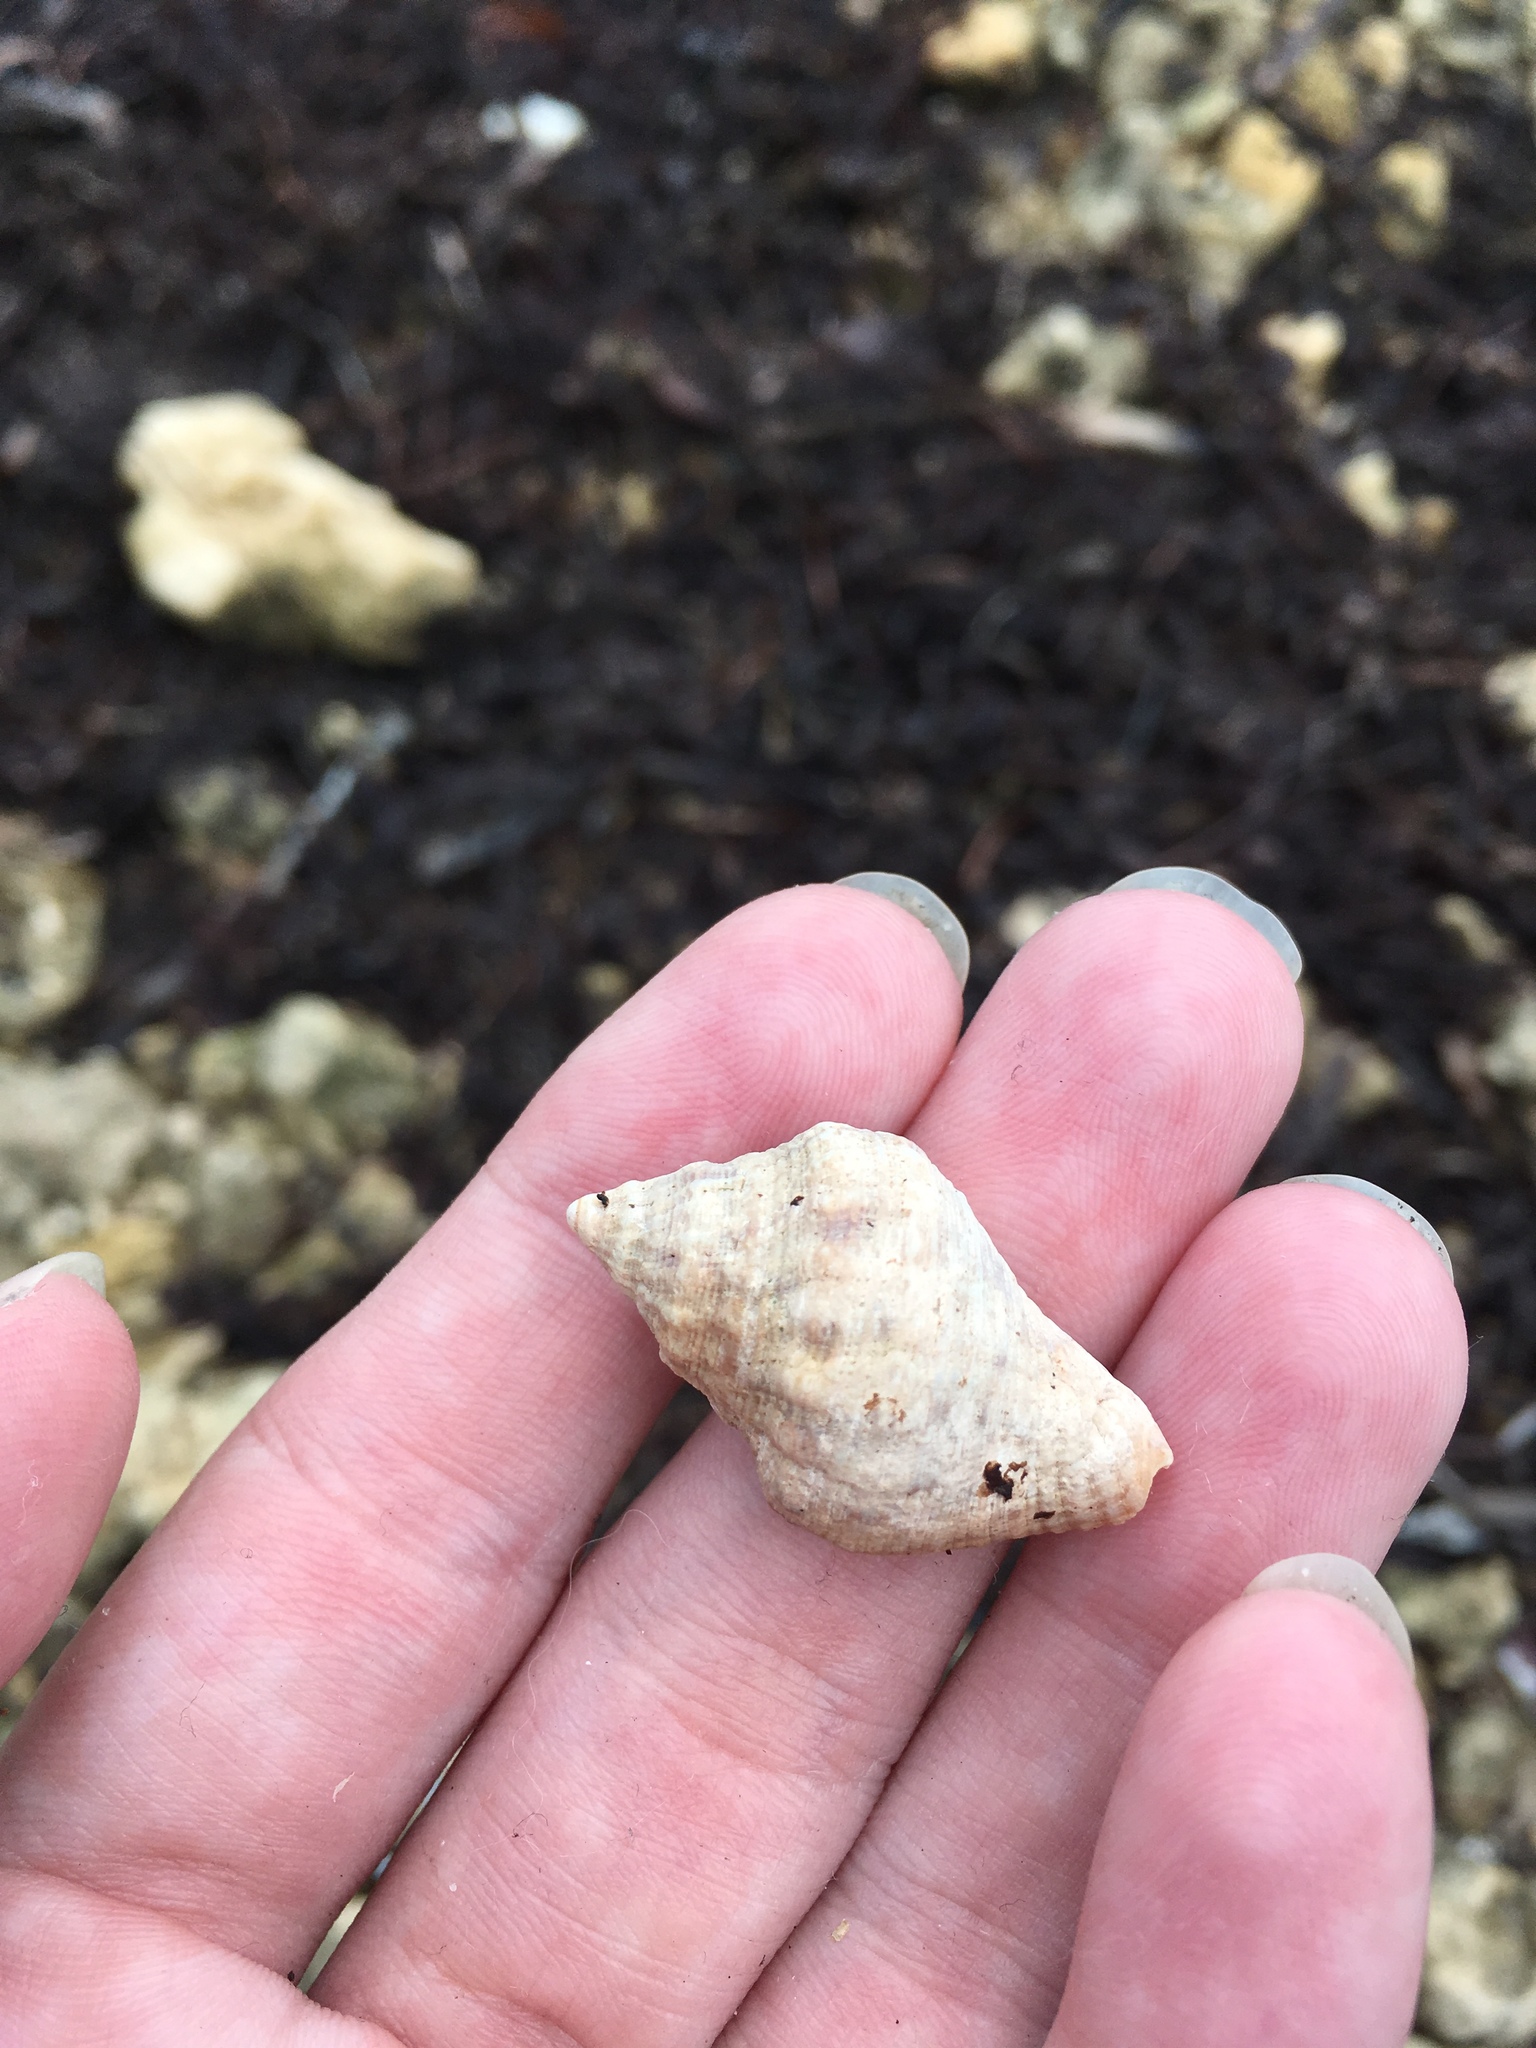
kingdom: Animalia
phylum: Mollusca
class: Gastropoda
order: Neogastropoda
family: Muricidae
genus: Stramonita
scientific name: Stramonita floridana
